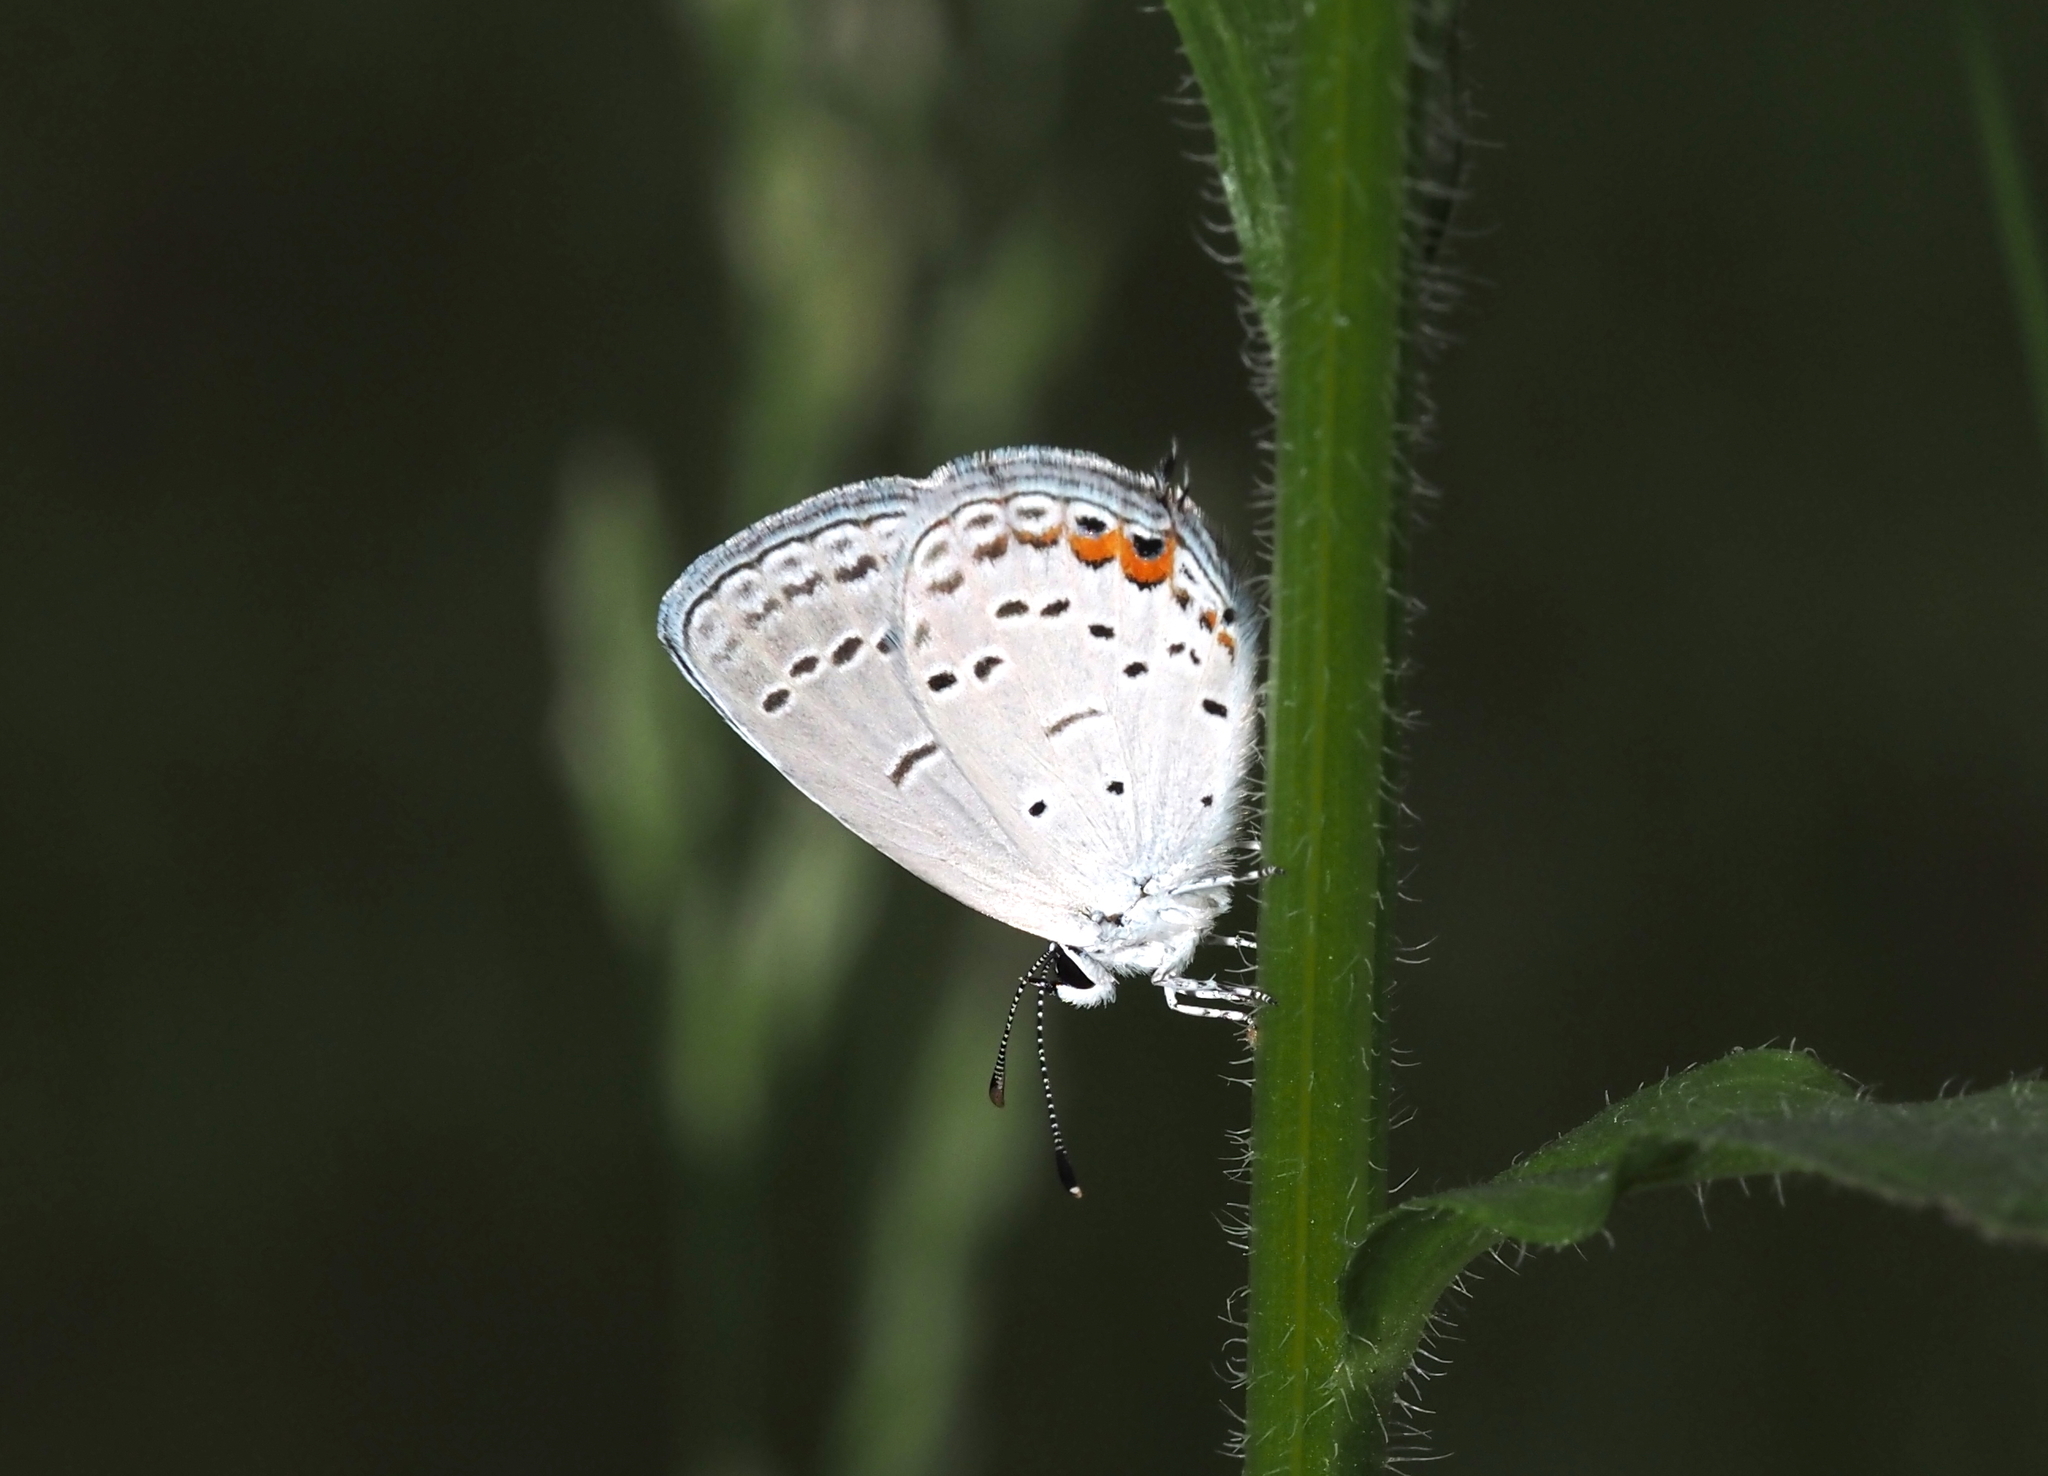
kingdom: Animalia
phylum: Arthropoda
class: Insecta
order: Lepidoptera
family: Lycaenidae
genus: Elkalyce
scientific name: Elkalyce comyntas
